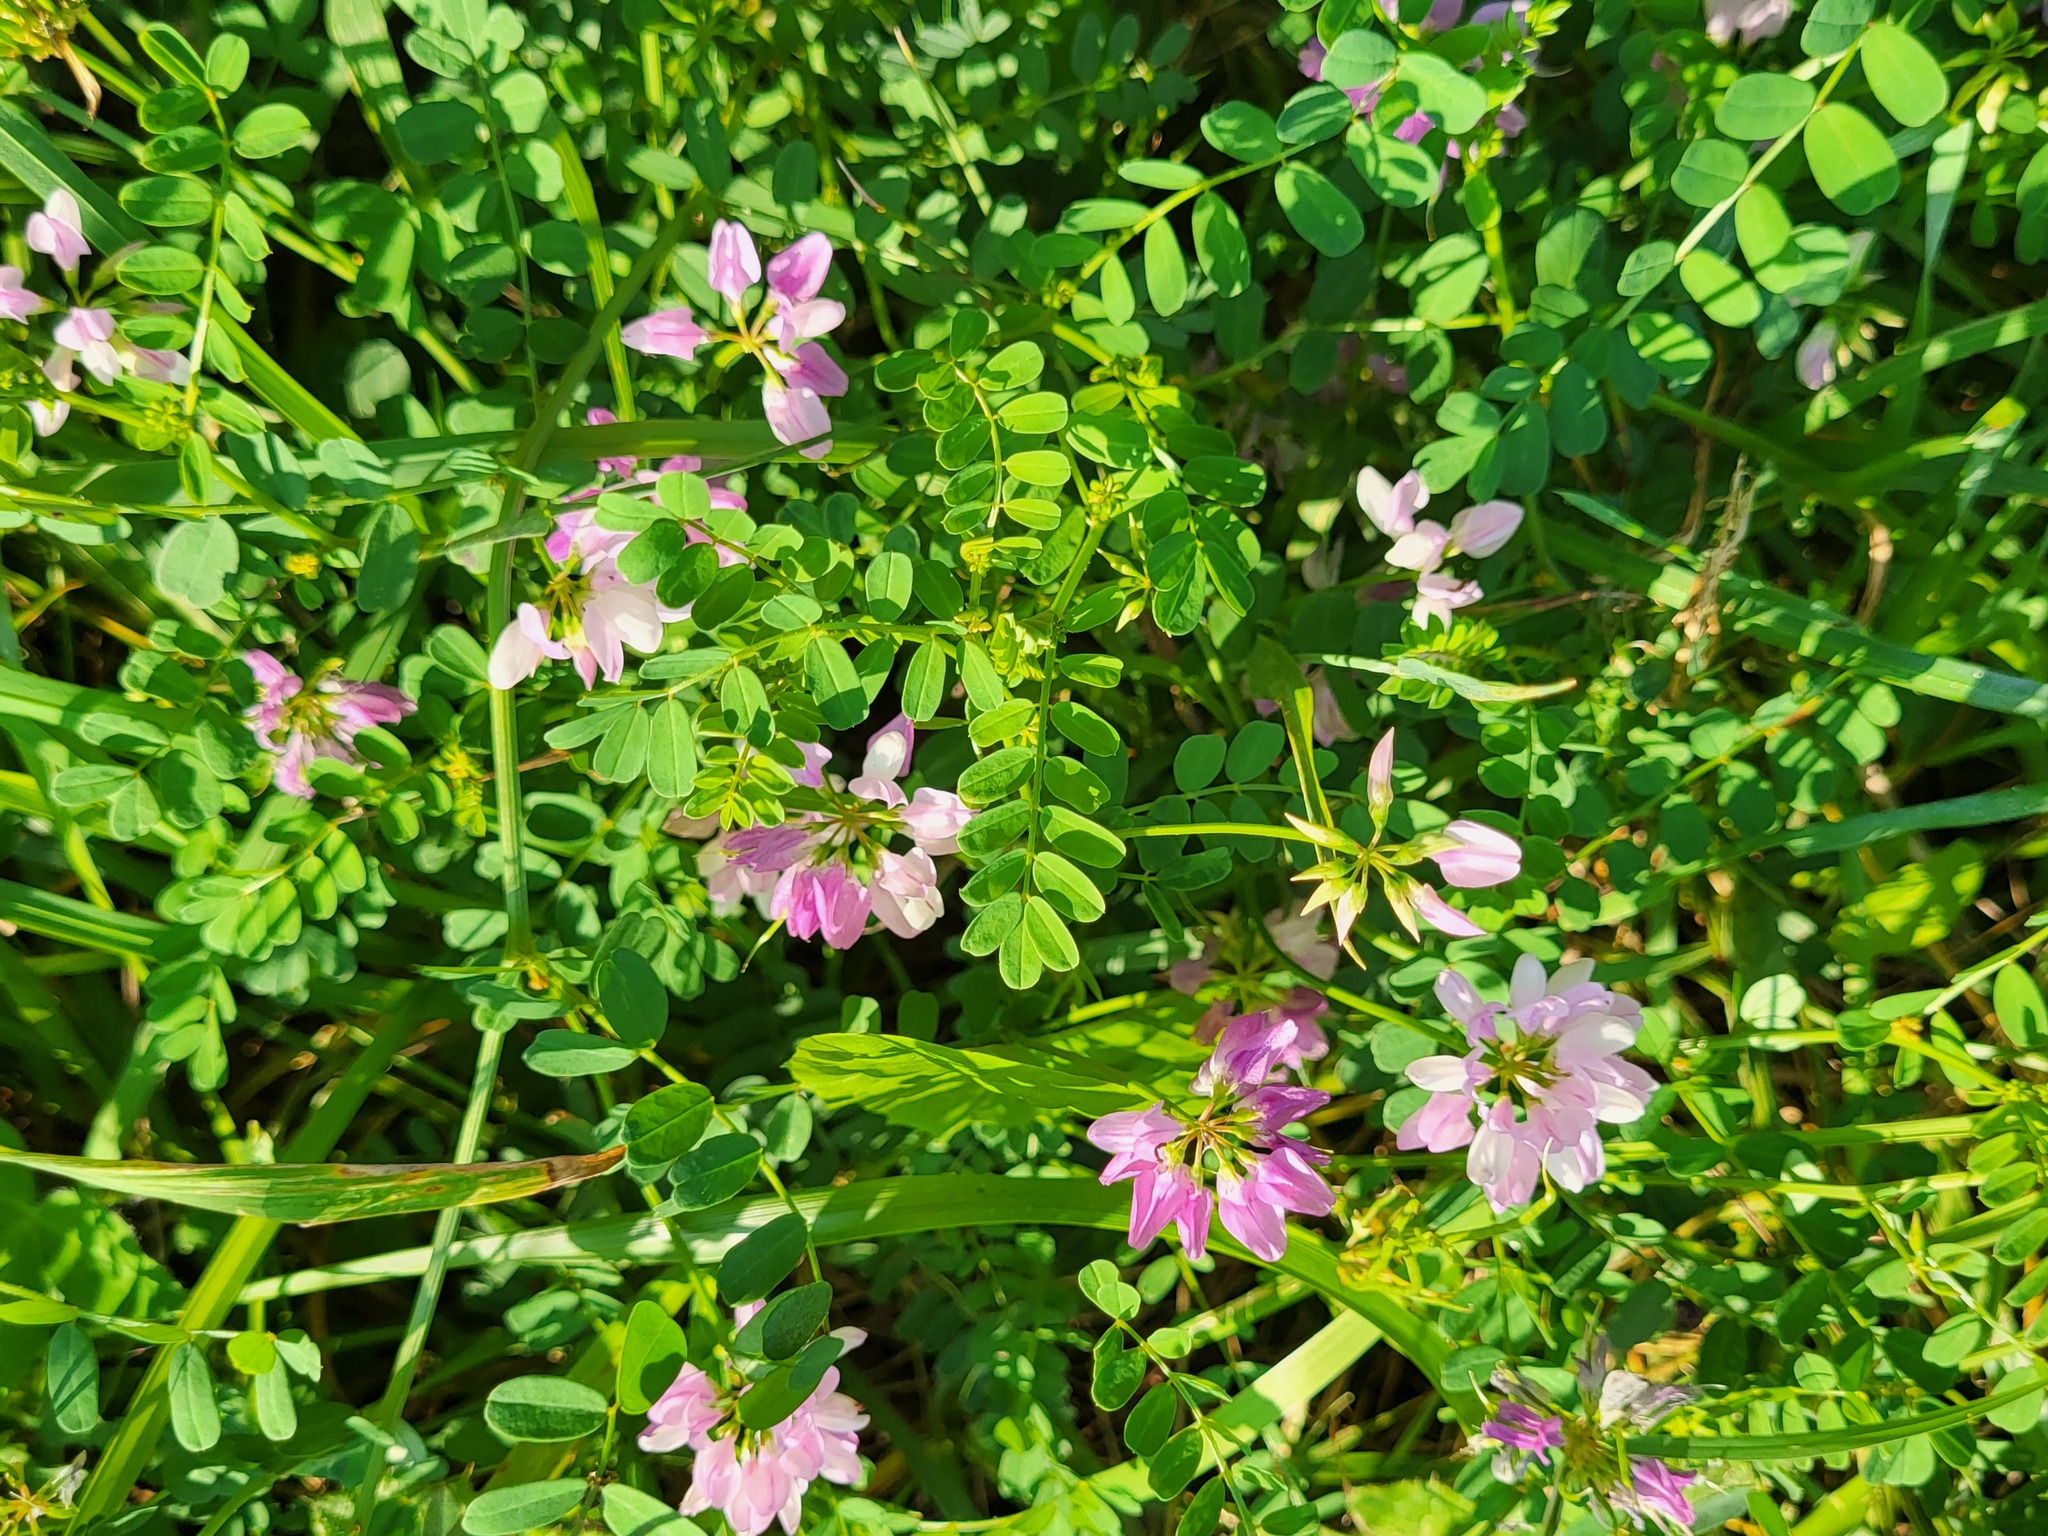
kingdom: Plantae
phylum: Tracheophyta
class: Magnoliopsida
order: Fabales
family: Fabaceae
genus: Coronilla
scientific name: Coronilla varia
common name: Crownvetch
